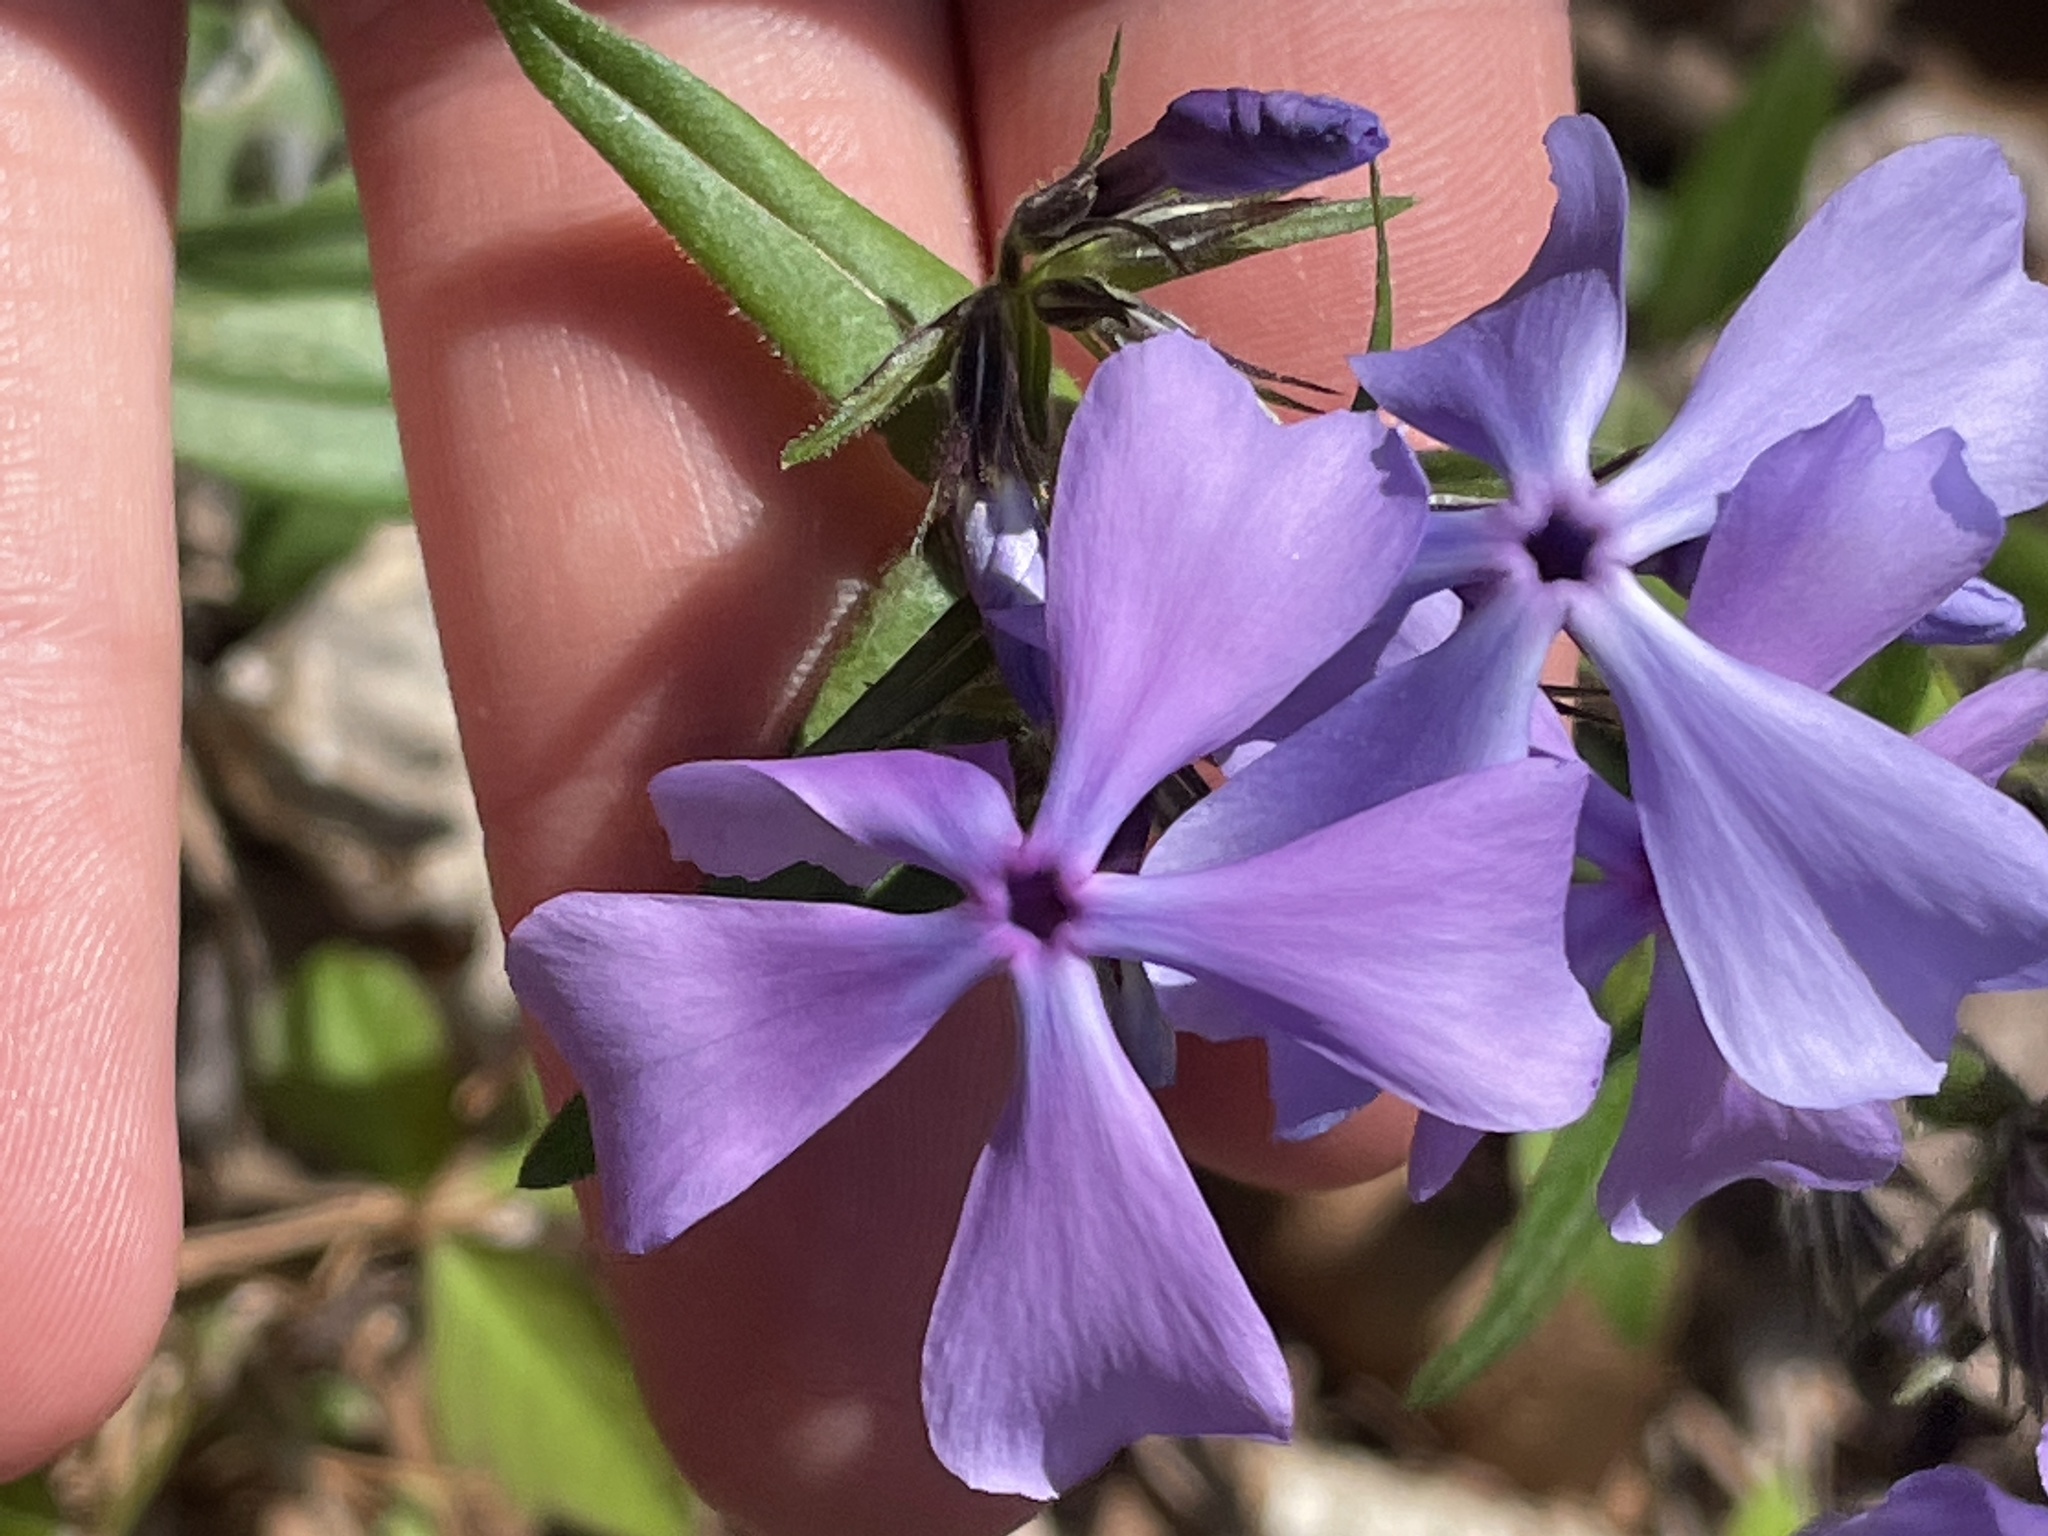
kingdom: Plantae
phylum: Tracheophyta
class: Magnoliopsida
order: Ericales
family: Polemoniaceae
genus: Phlox
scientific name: Phlox divaricata
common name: Blue phlox
